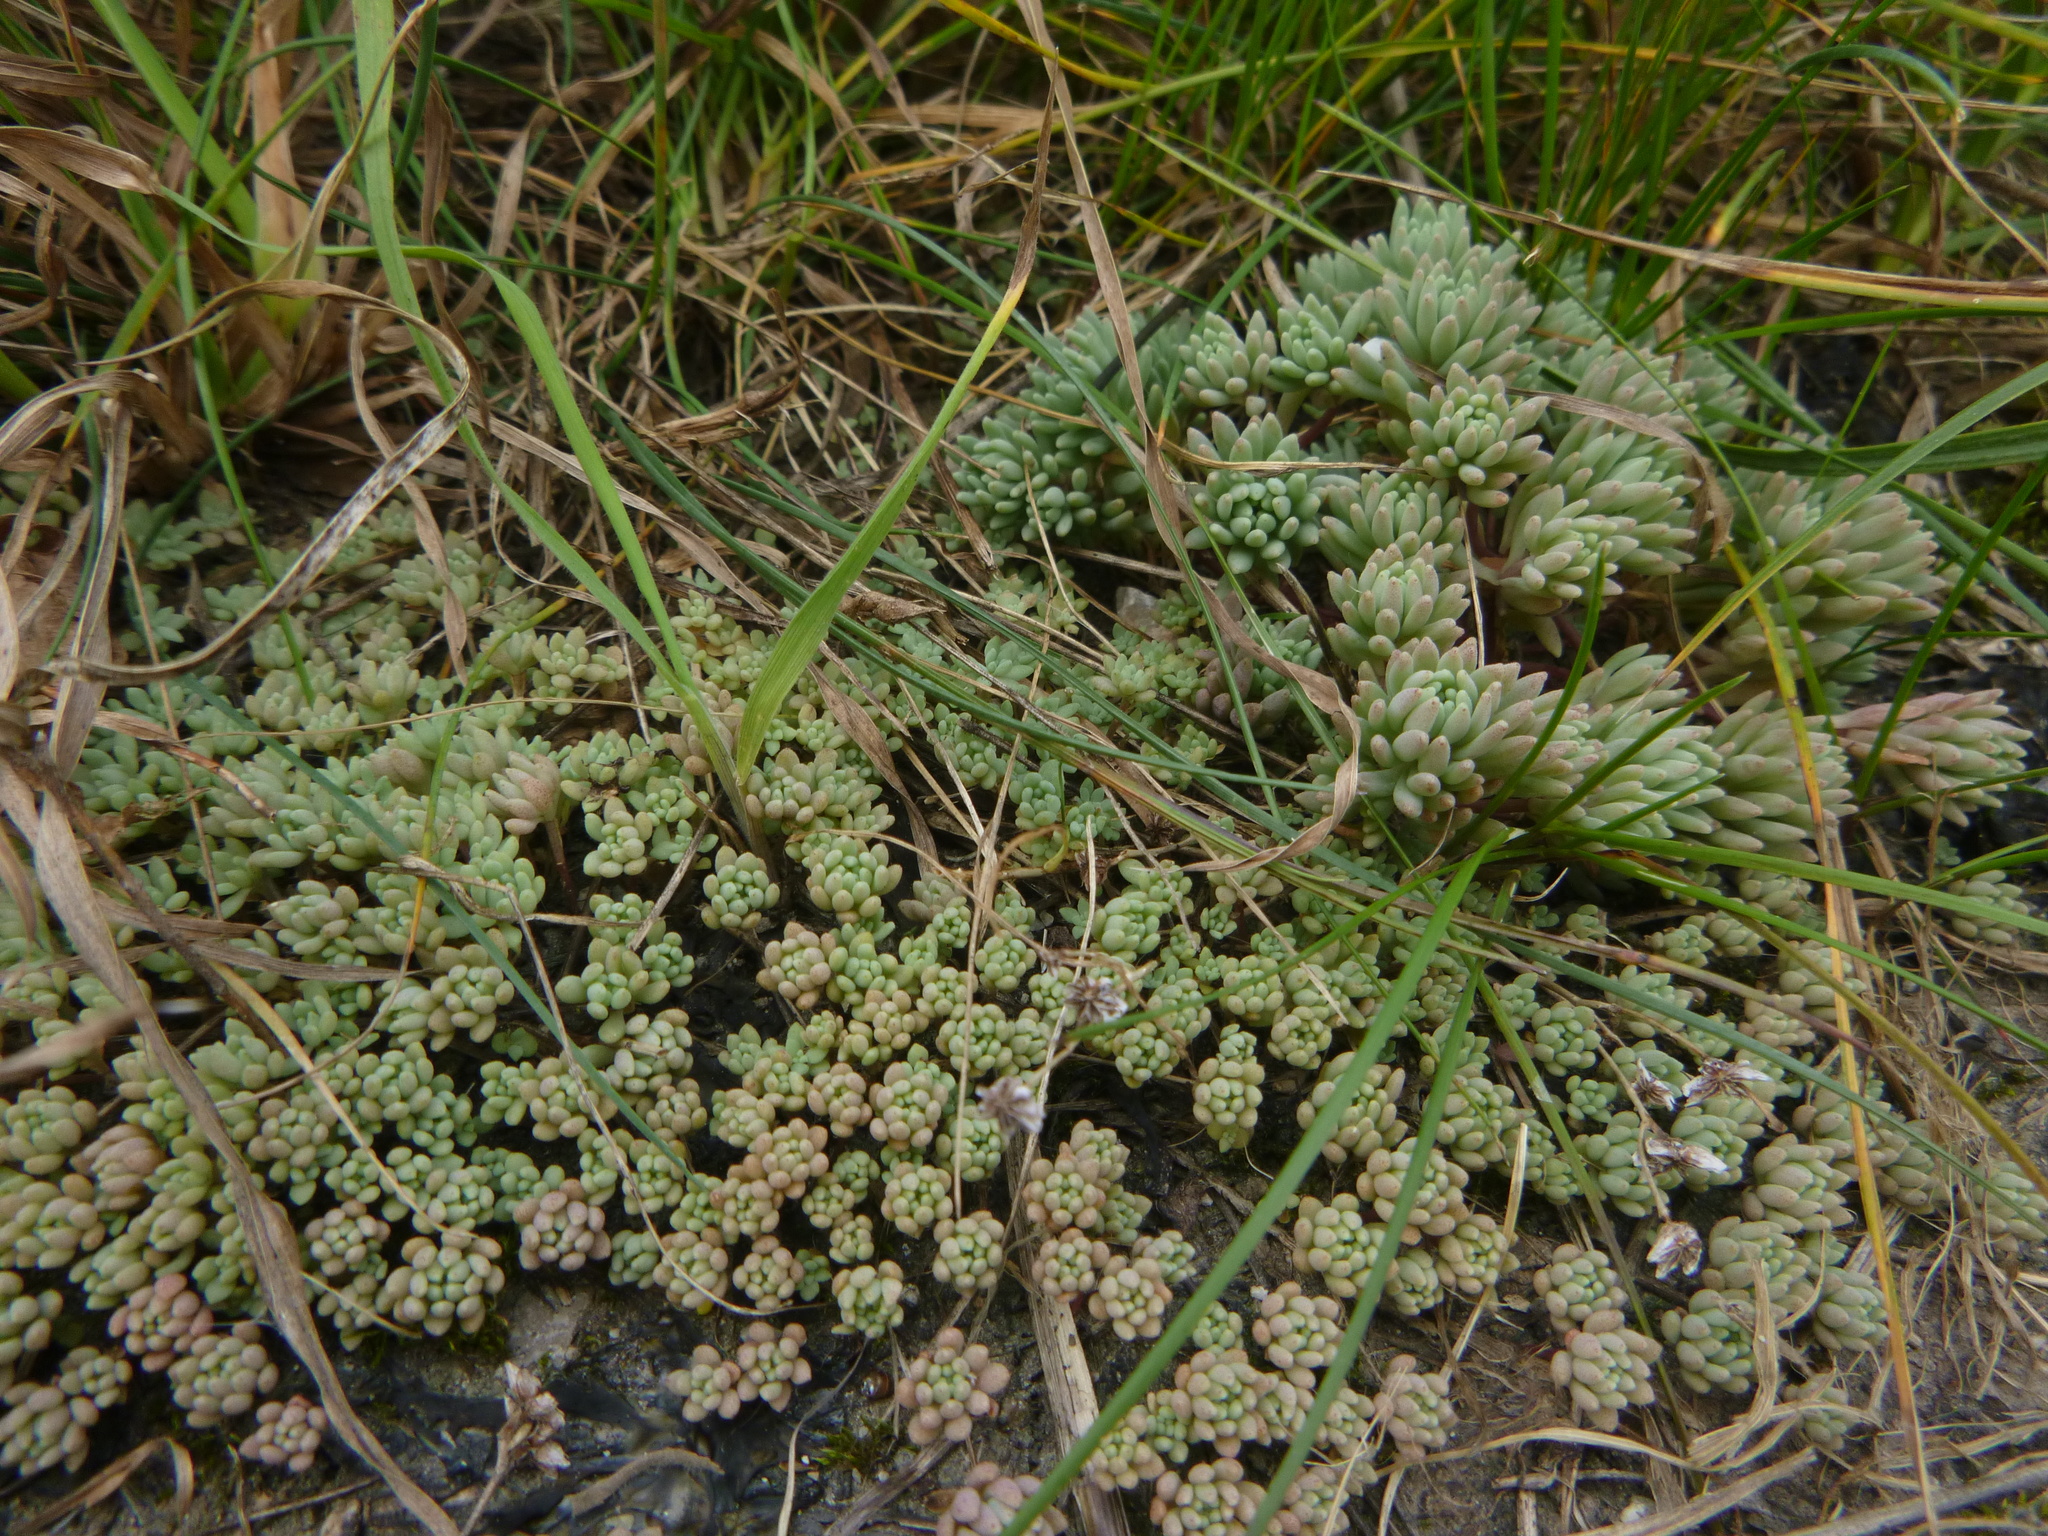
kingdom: Plantae
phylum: Tracheophyta
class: Magnoliopsida
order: Saxifragales
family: Crassulaceae
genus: Sedum
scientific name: Sedum hispanicum
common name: Spanish stonecrop
